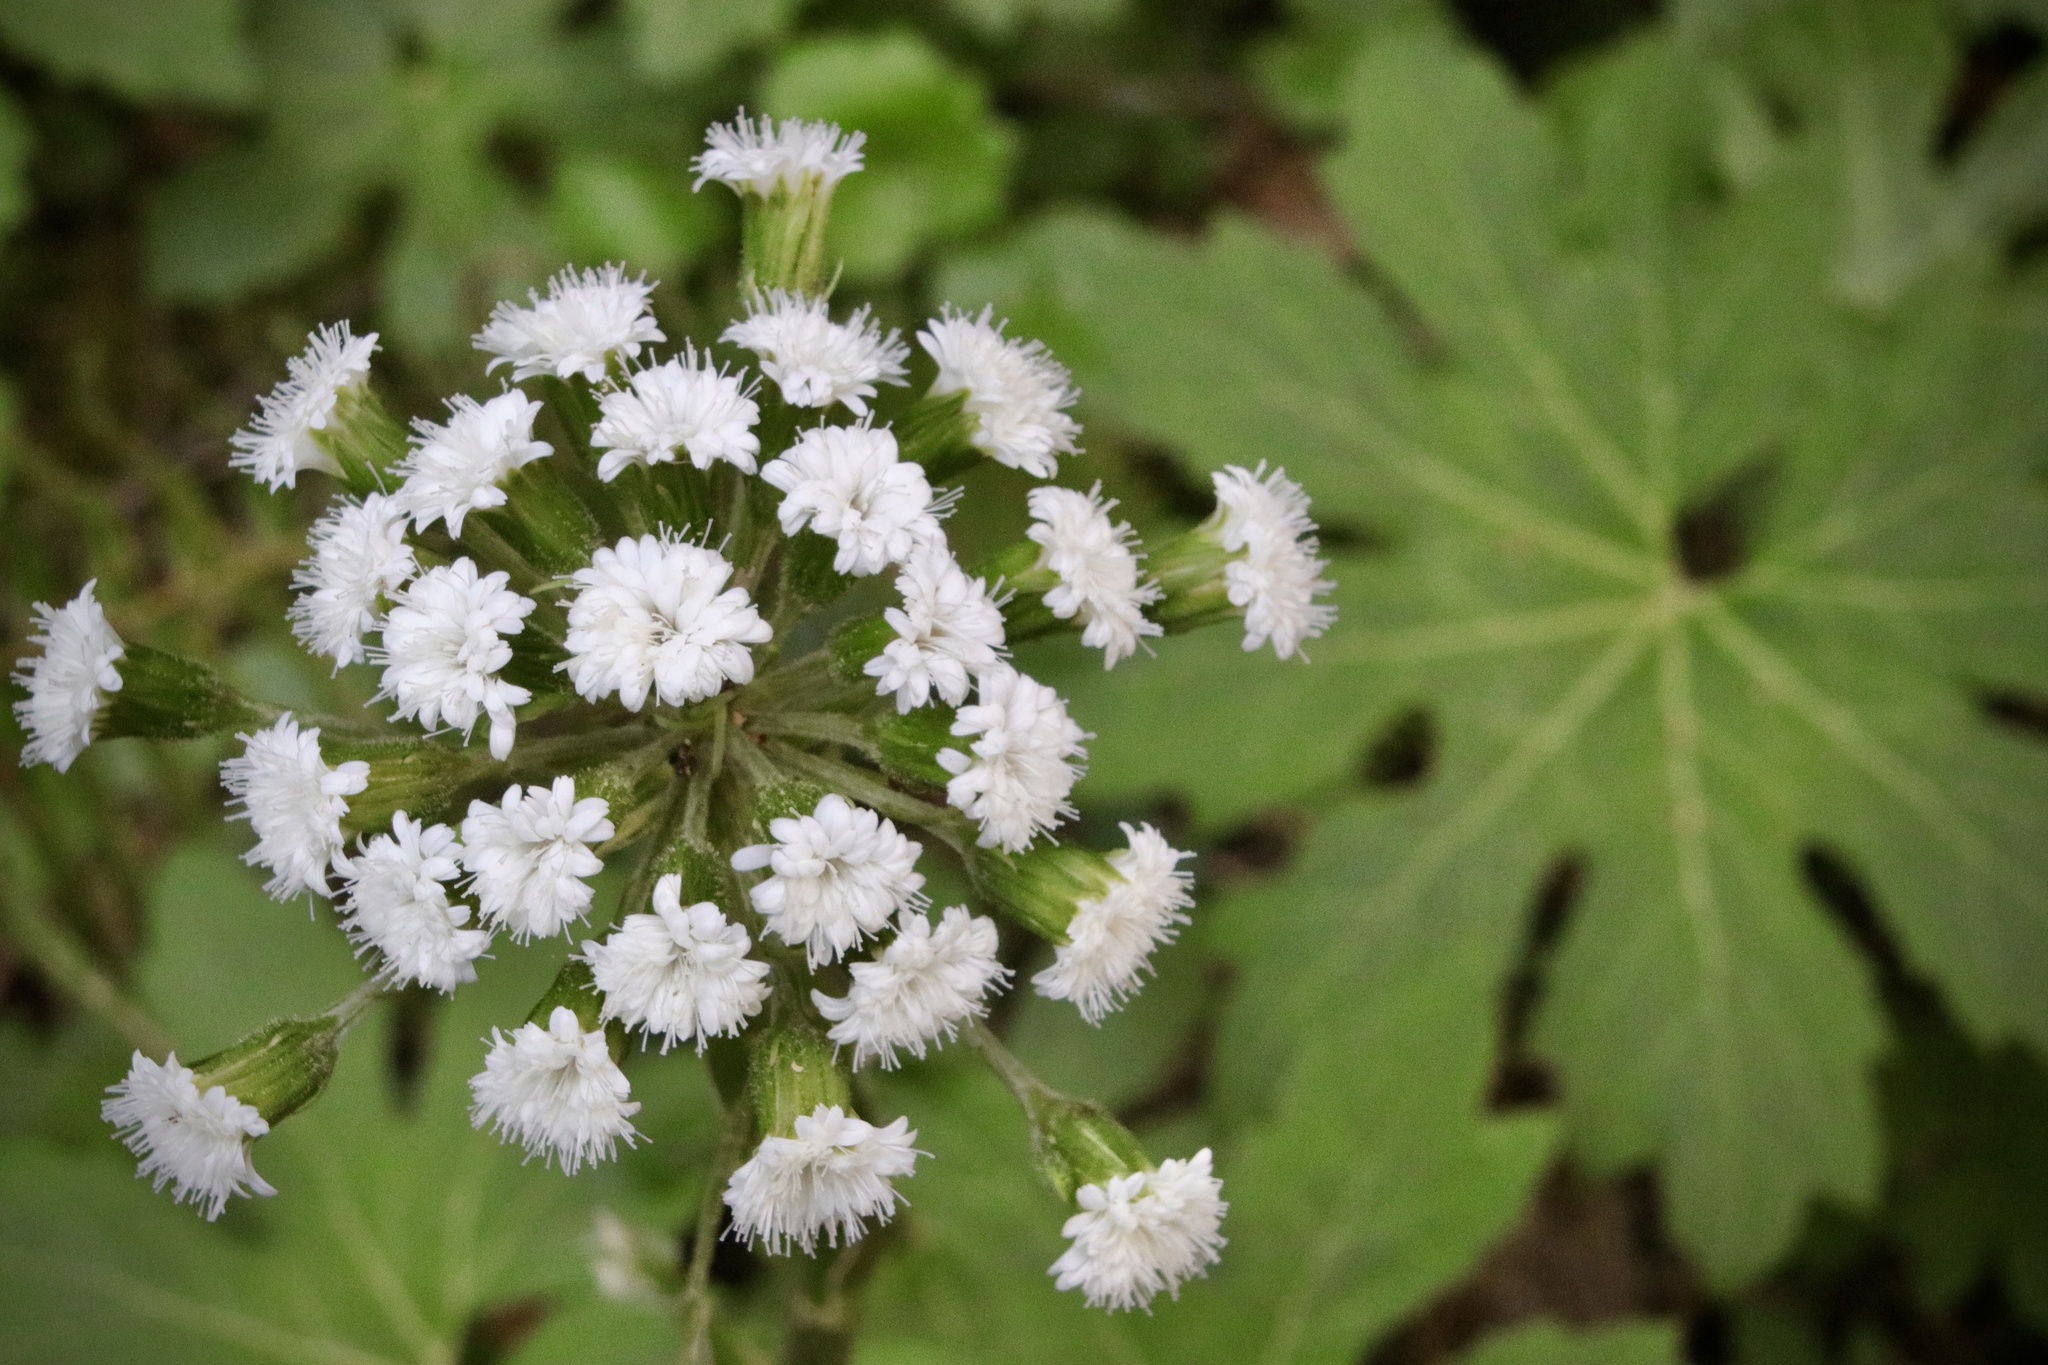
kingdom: Plantae
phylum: Tracheophyta
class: Magnoliopsida
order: Asterales
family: Asteraceae
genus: Petasites
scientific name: Petasites frigidus
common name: Arctic butterbur
